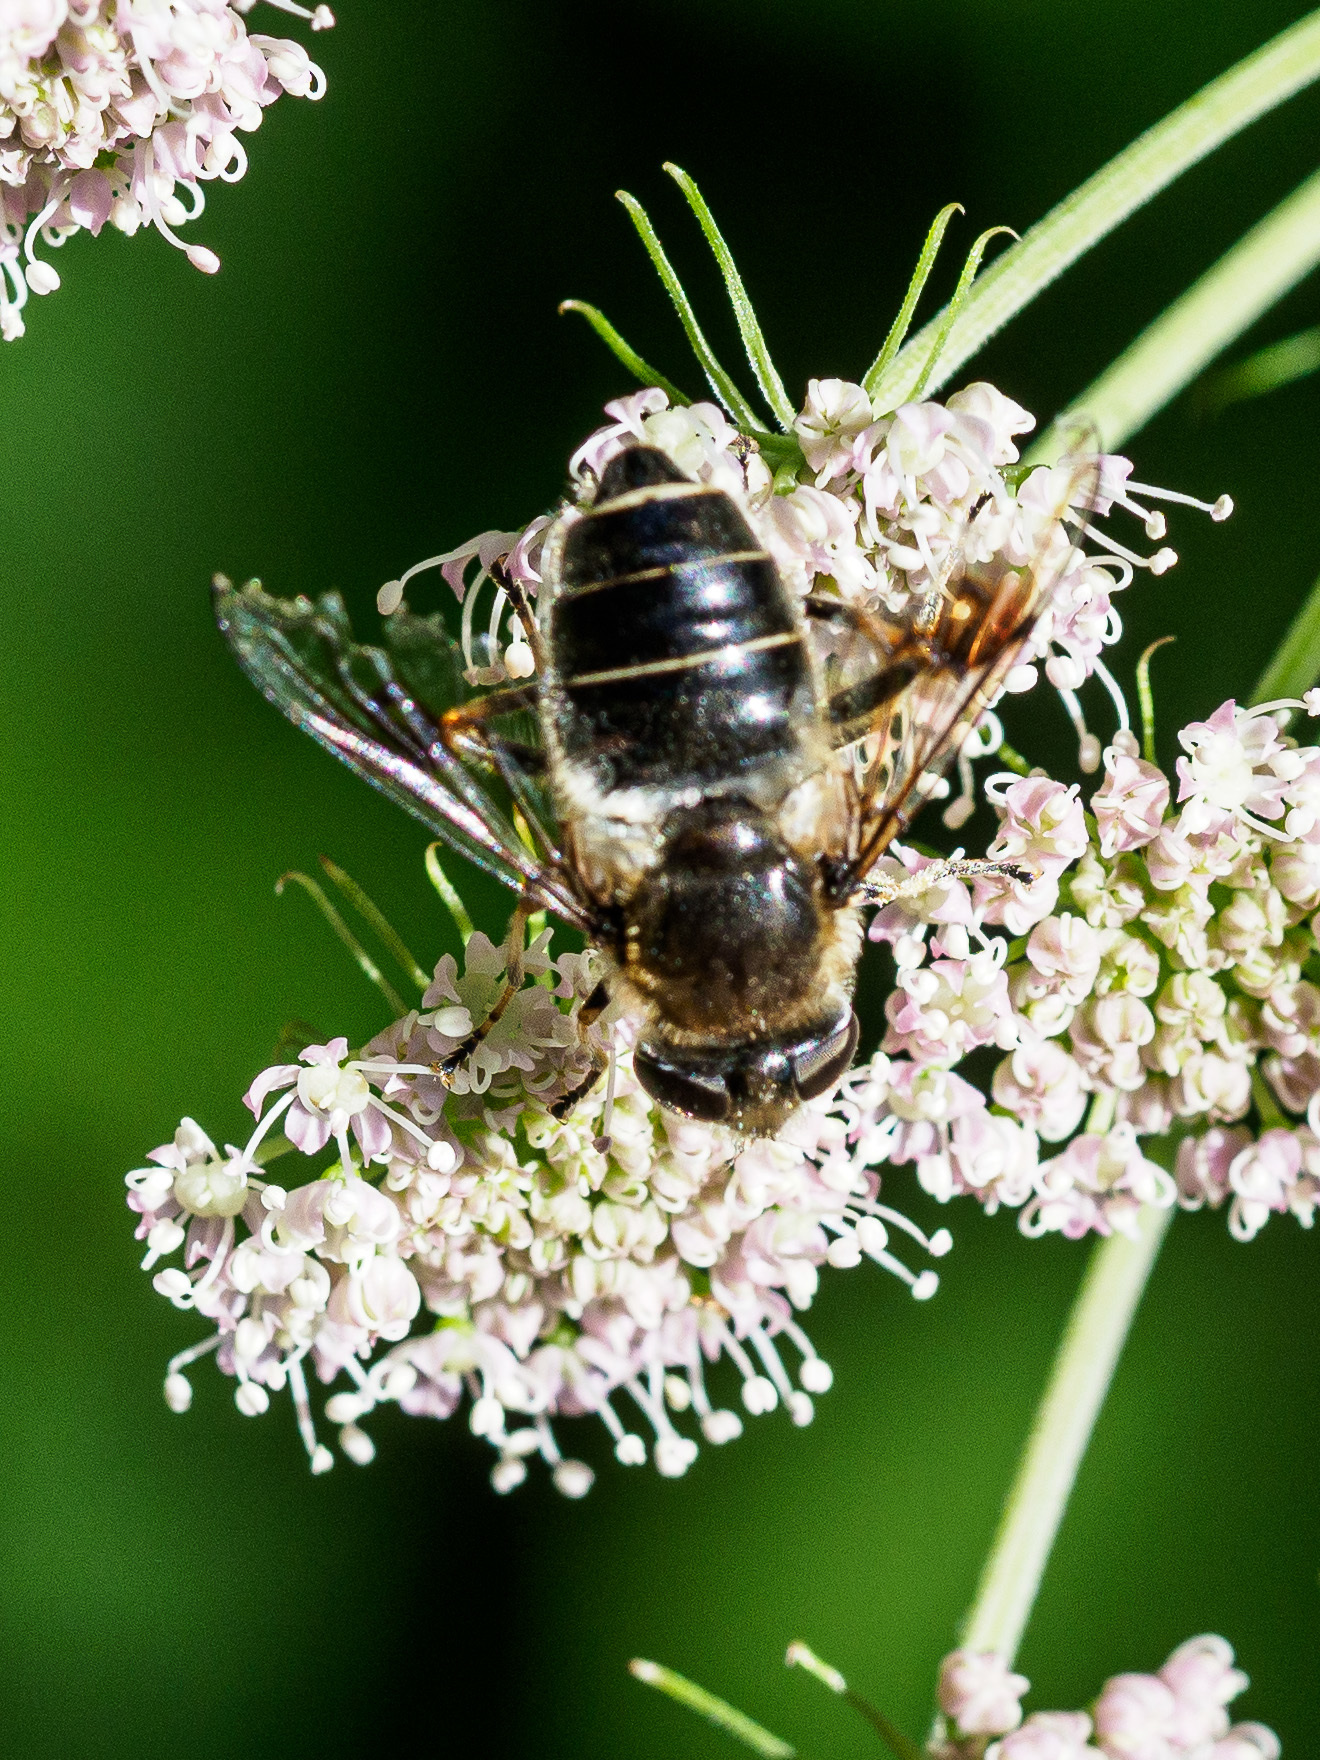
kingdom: Animalia
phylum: Arthropoda
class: Insecta
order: Diptera
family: Syrphidae
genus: Eristalis
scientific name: Eristalis rupium
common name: Hover fly
